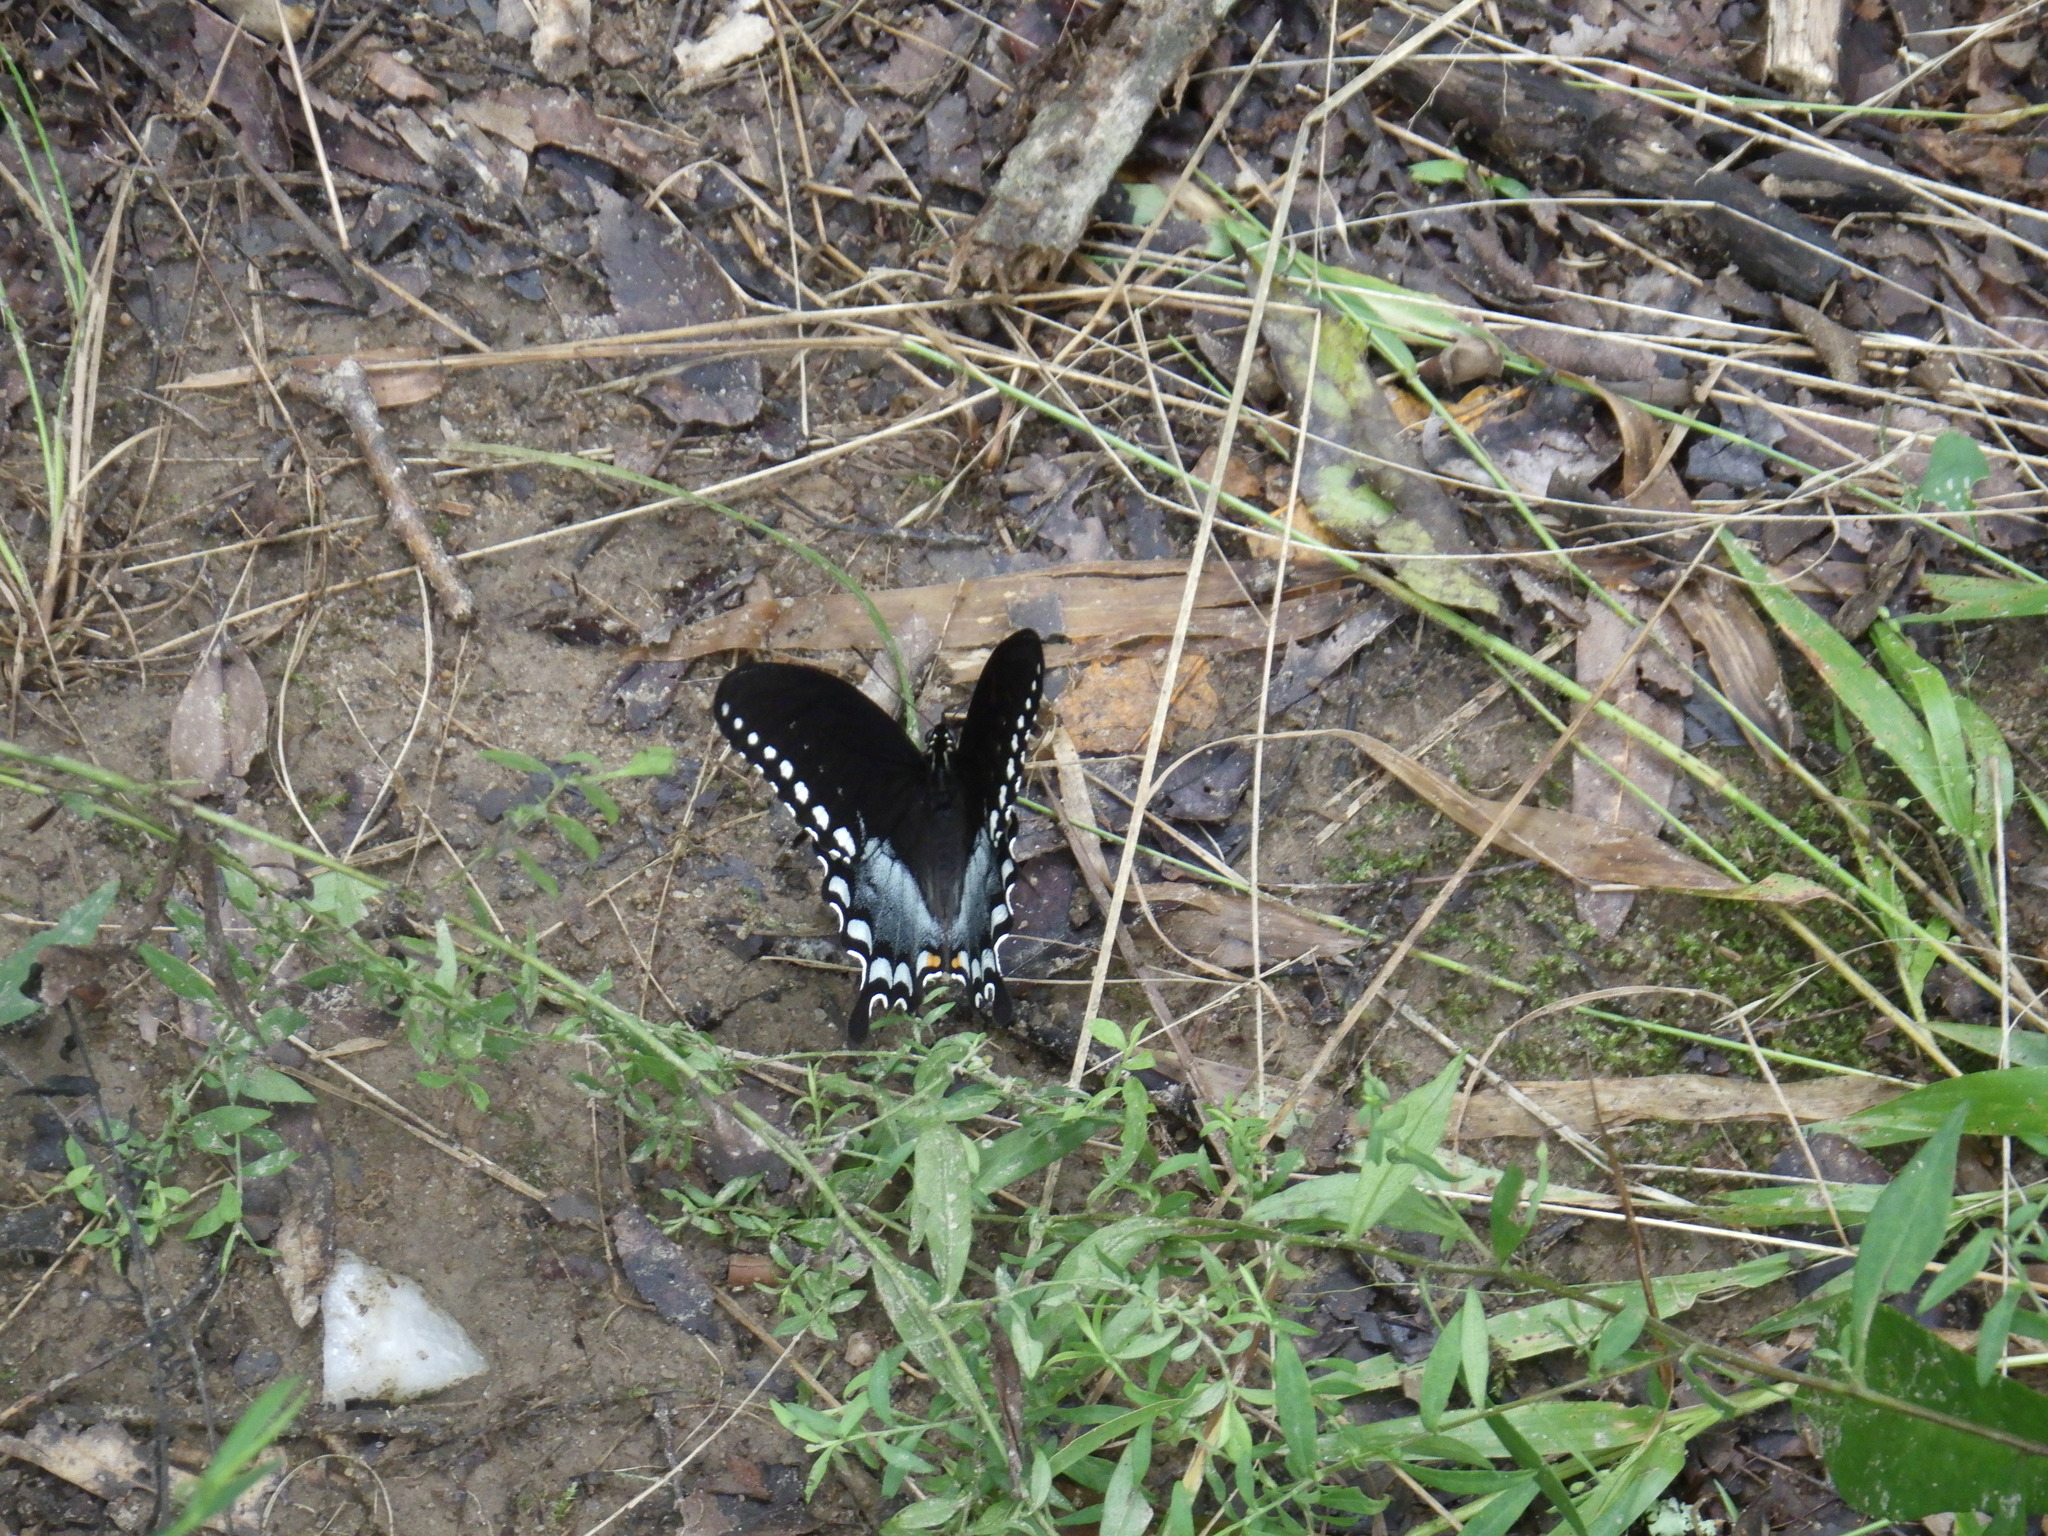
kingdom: Animalia
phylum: Arthropoda
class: Insecta
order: Lepidoptera
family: Papilionidae
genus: Papilio
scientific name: Papilio troilus
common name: Spicebush swallowtail
